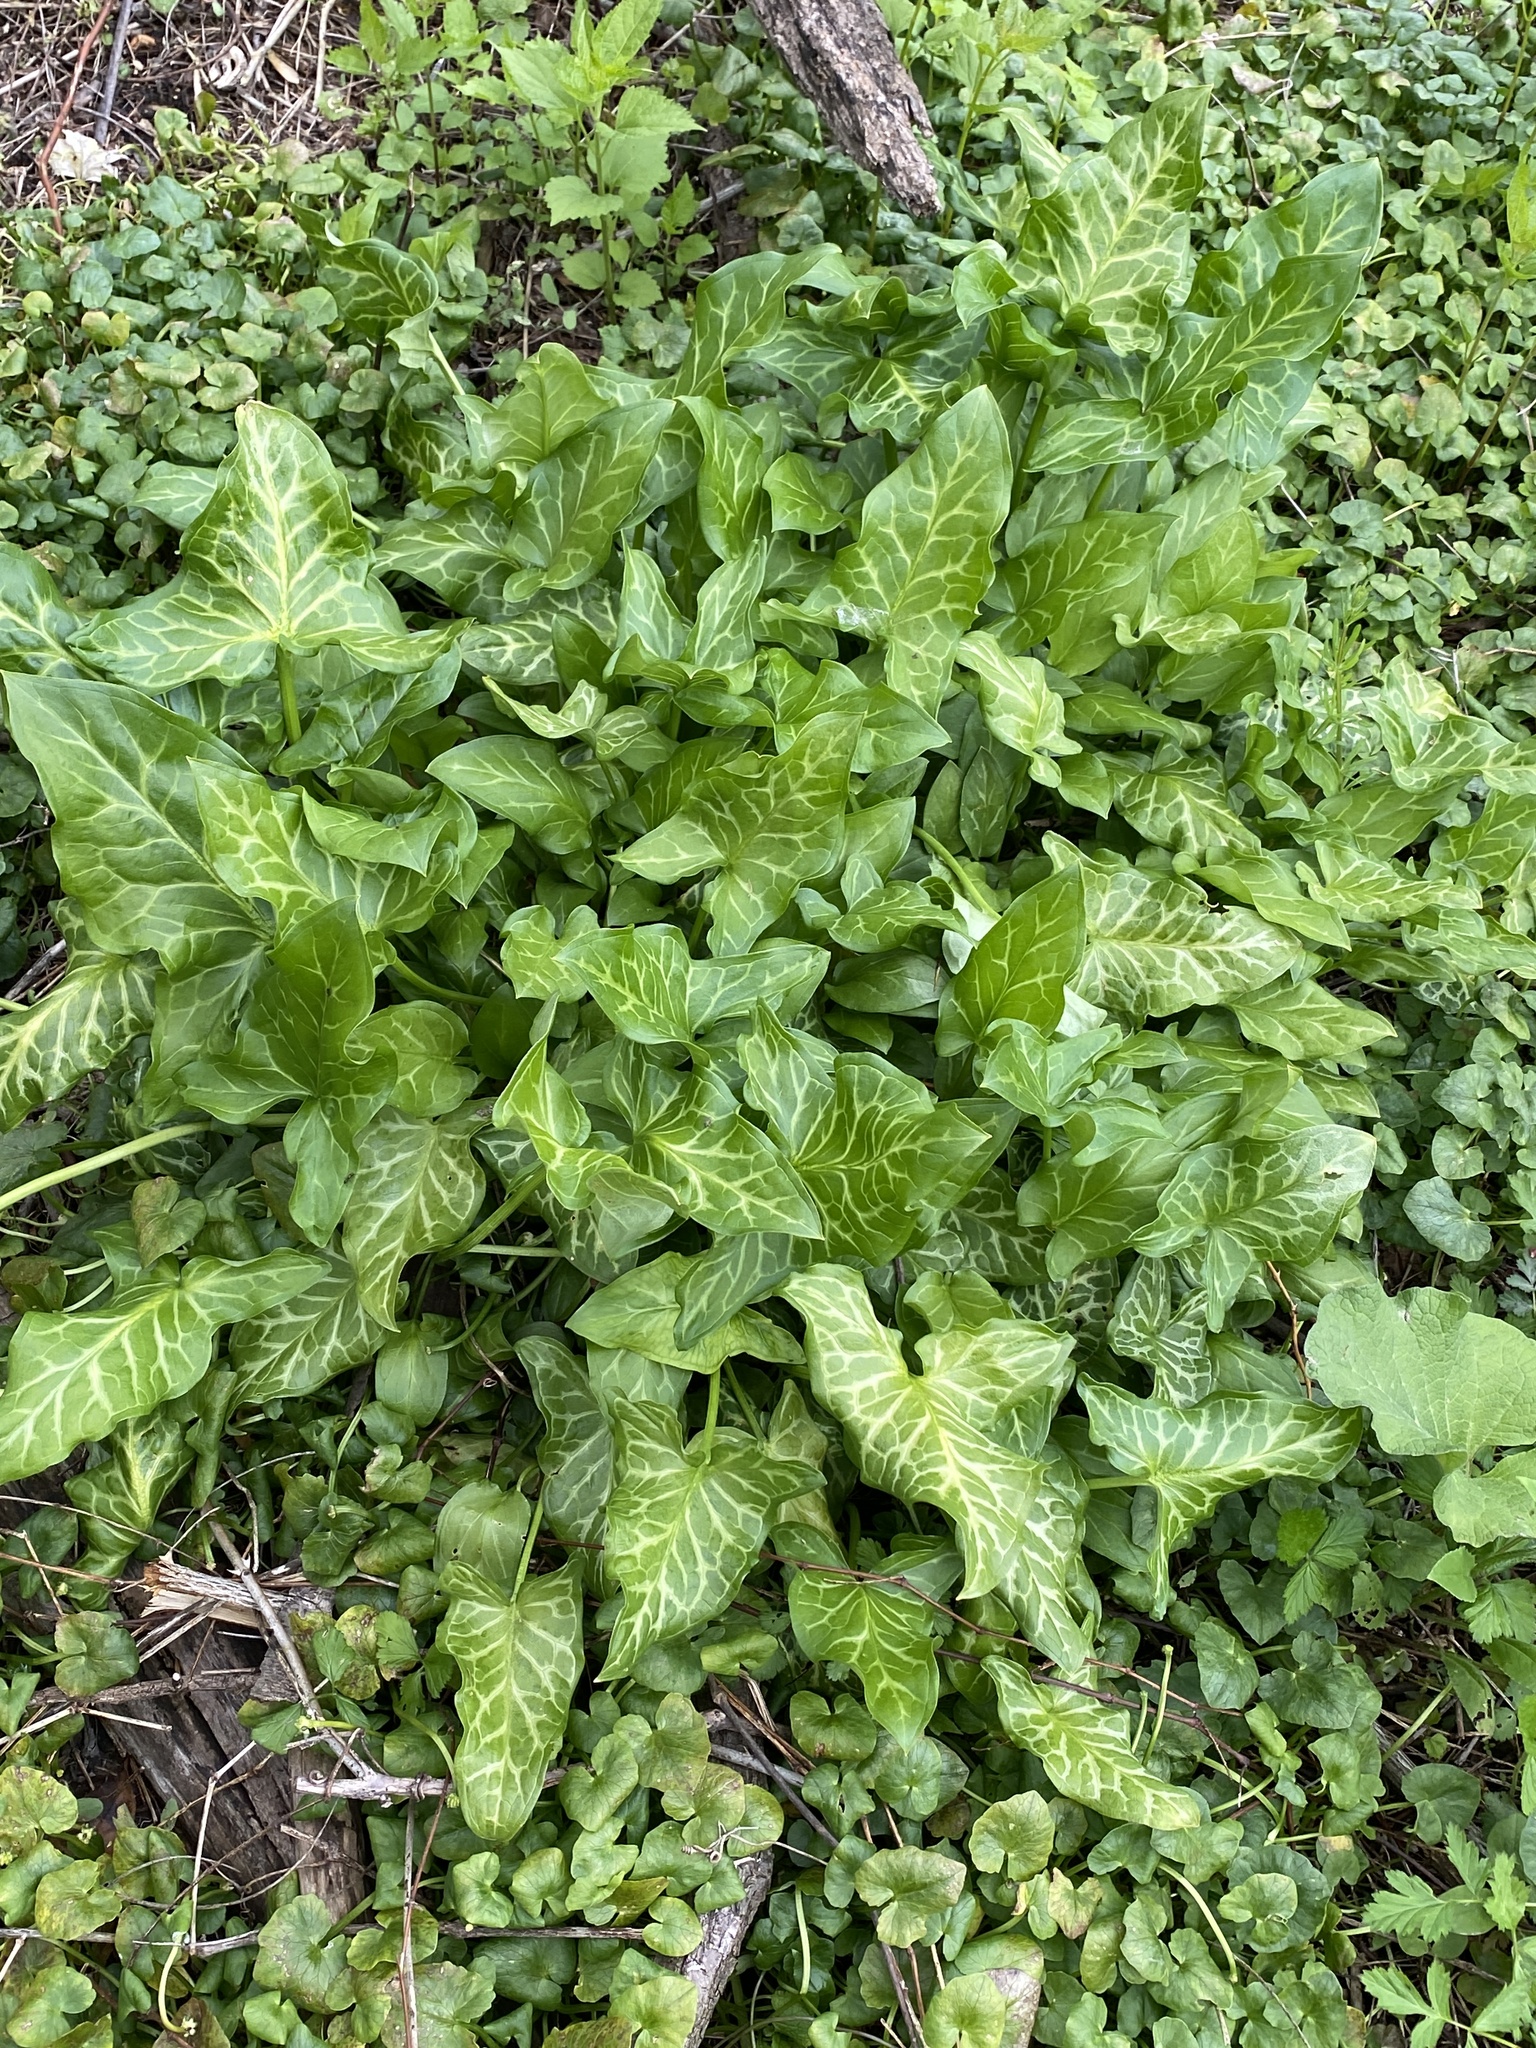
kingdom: Plantae
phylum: Tracheophyta
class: Liliopsida
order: Alismatales
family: Araceae
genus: Arum
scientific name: Arum italicum
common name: Italian lords-and-ladies
